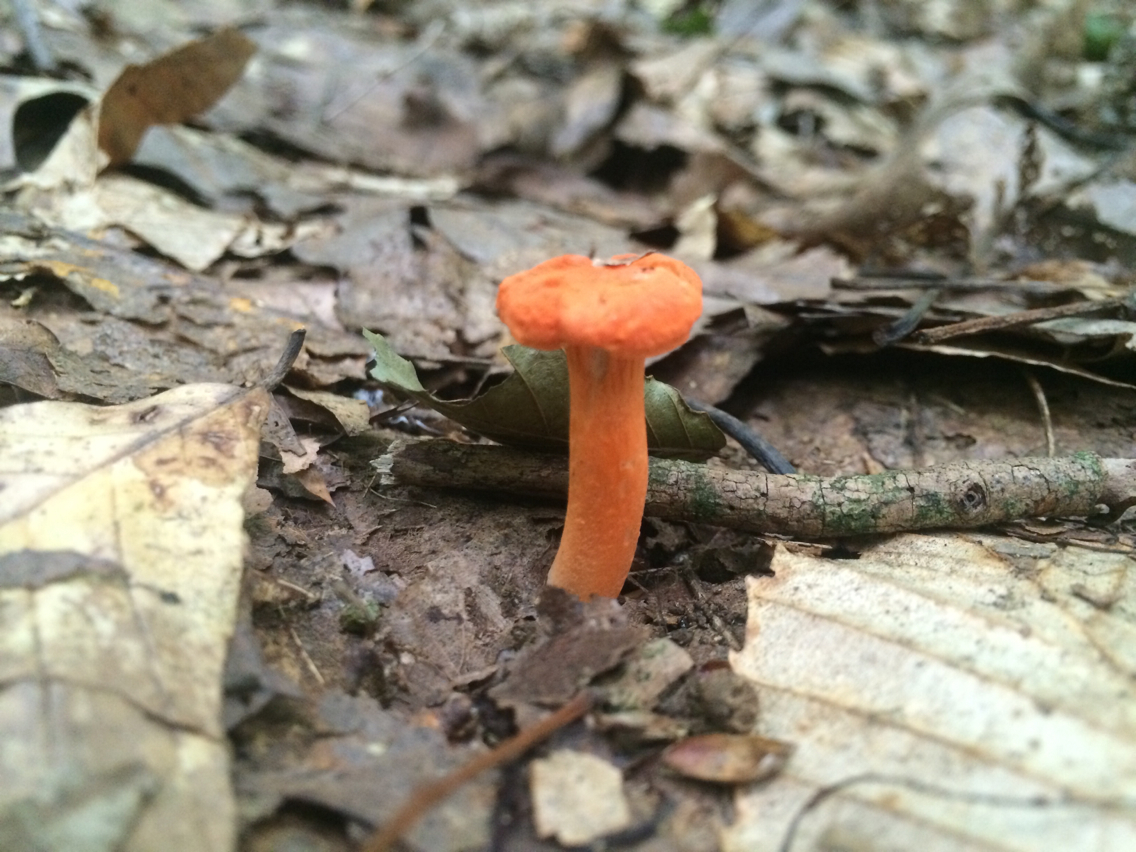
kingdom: Fungi
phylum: Basidiomycota
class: Agaricomycetes
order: Cantharellales
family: Hydnaceae
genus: Cantharellus
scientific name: Cantharellus cinnabarinus
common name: Cinnabar chanterelle
